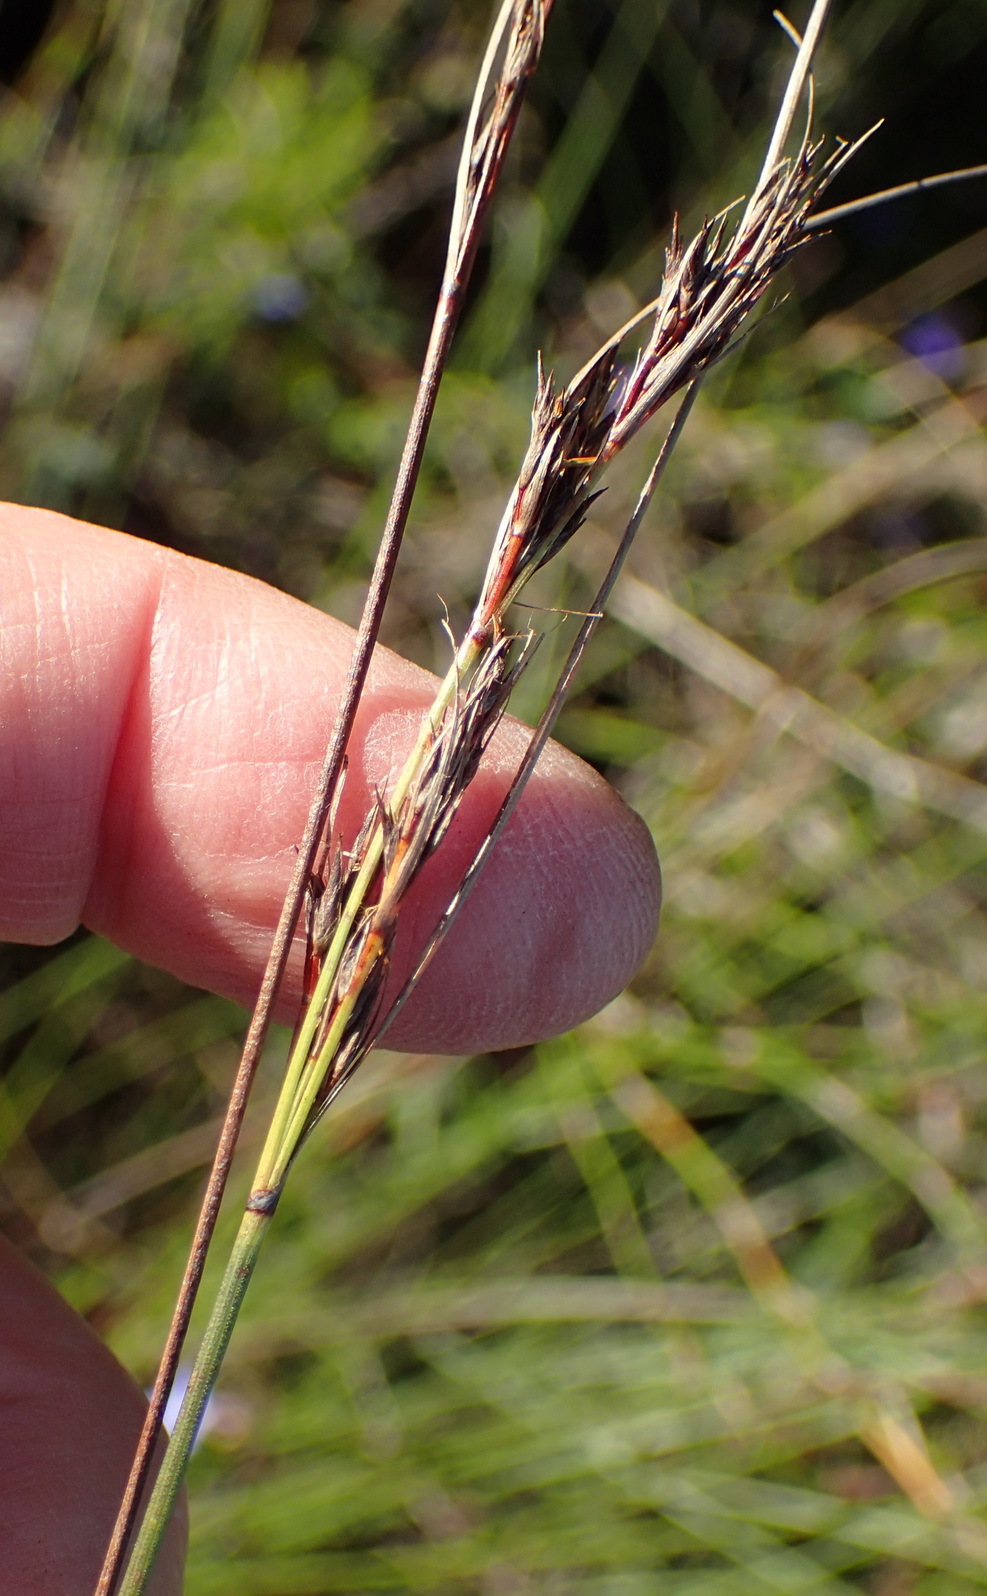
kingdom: Plantae
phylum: Tracheophyta
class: Liliopsida
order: Poales
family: Cyperaceae
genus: Schoenus
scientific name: Schoenus australis
